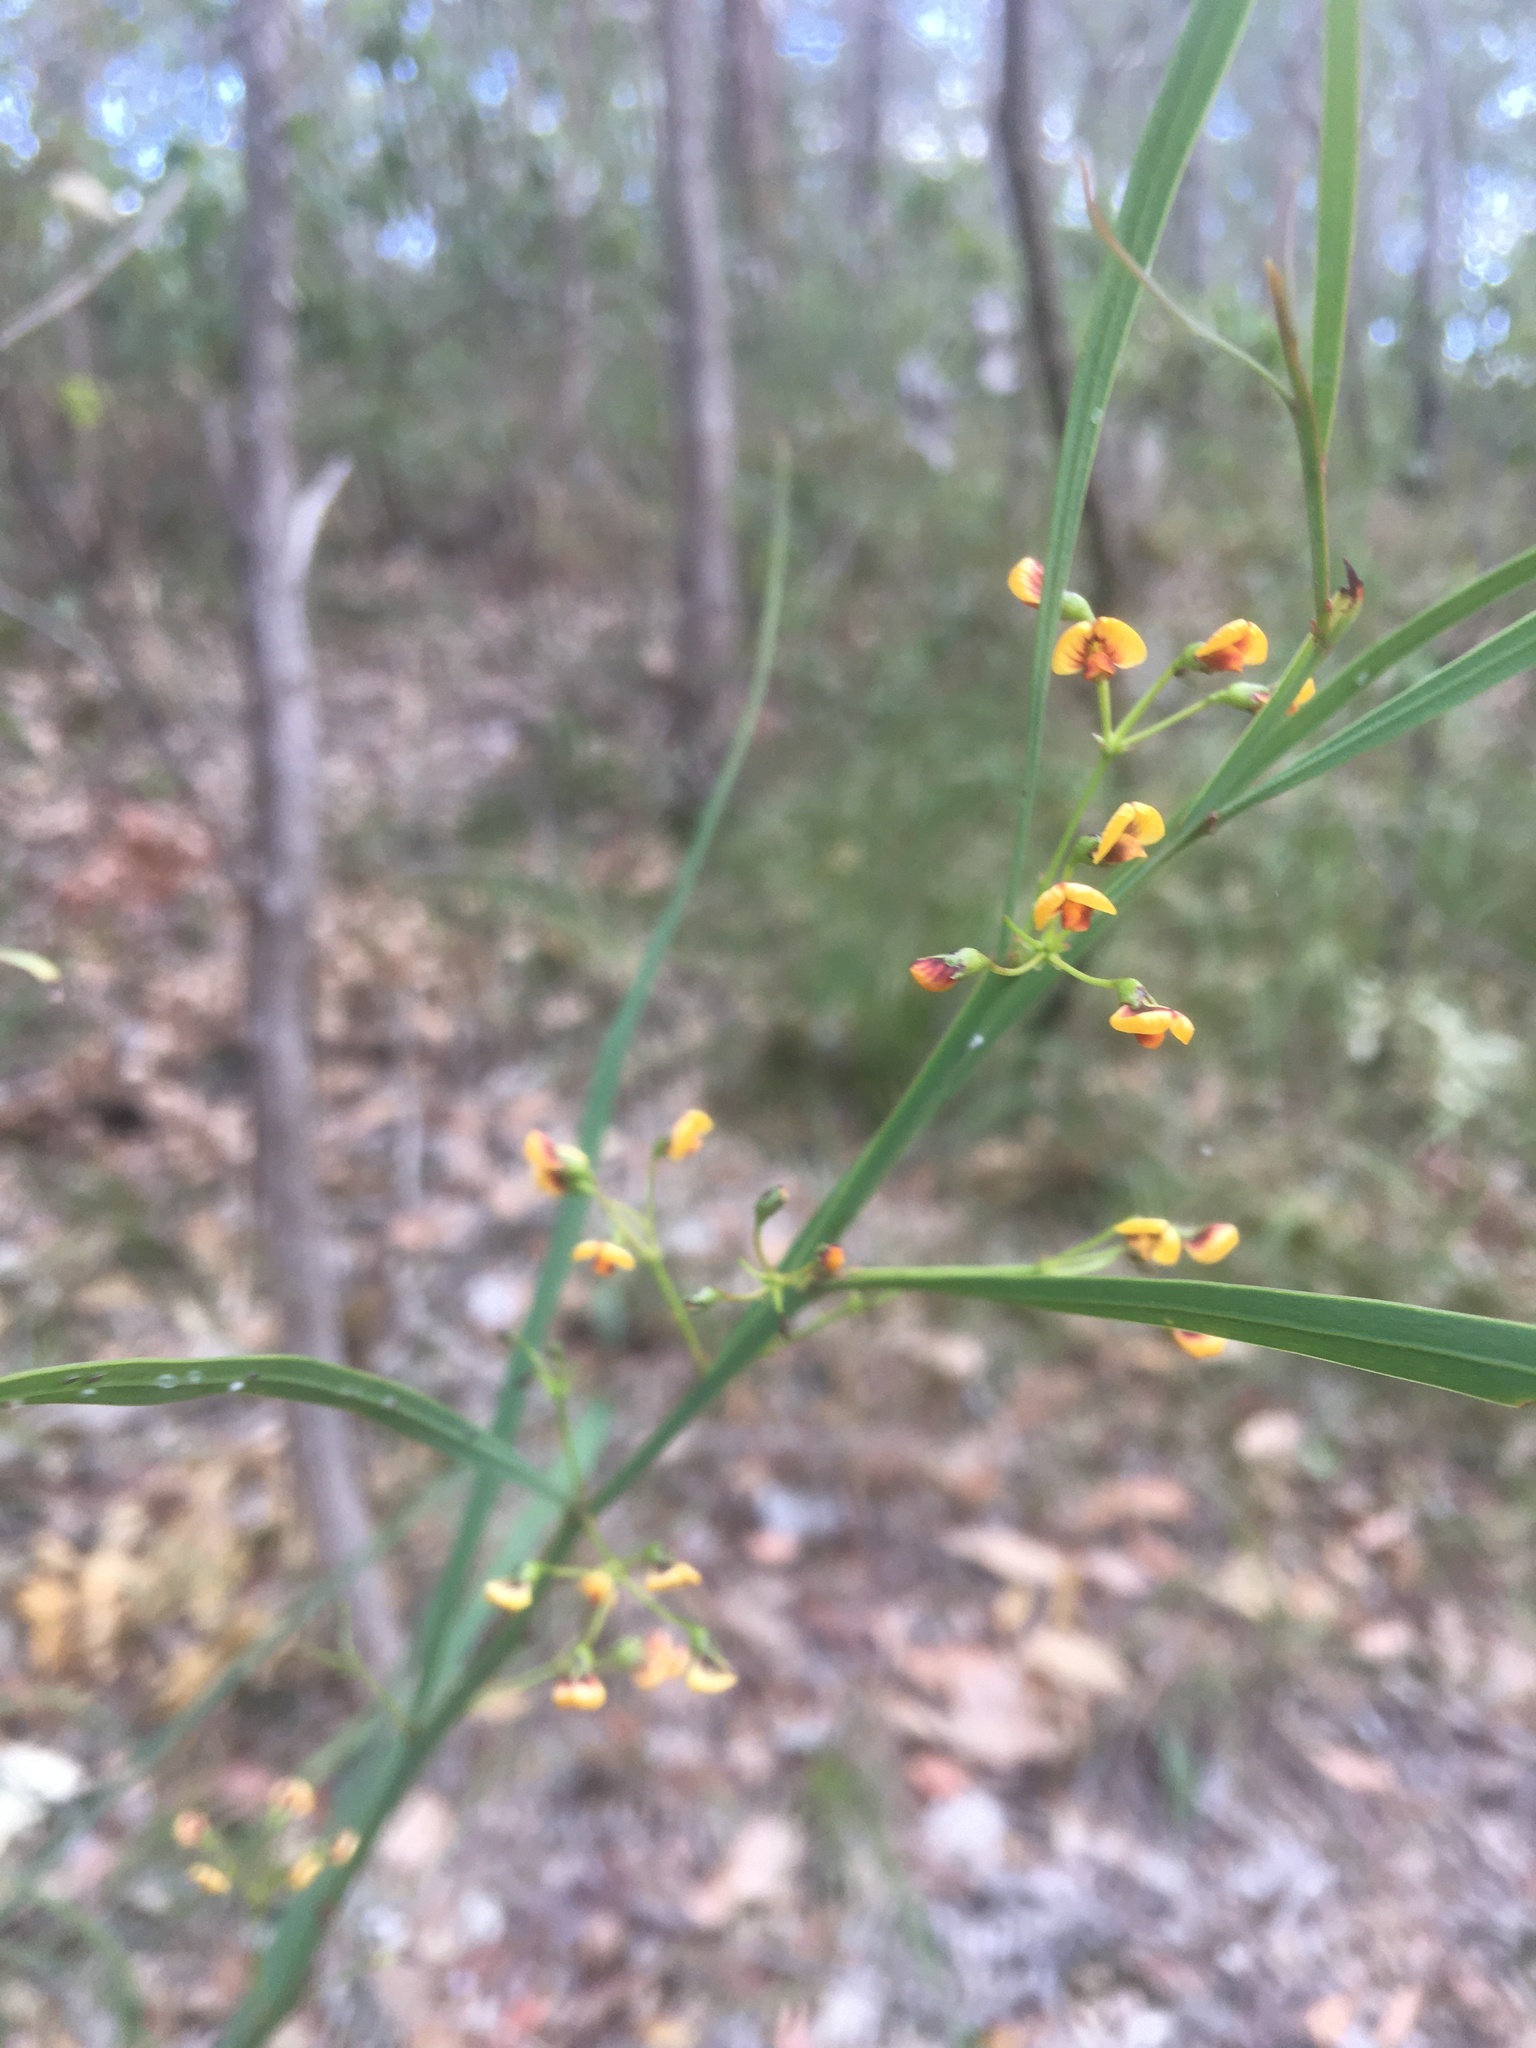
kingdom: Plantae
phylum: Tracheophyta
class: Magnoliopsida
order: Fabales
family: Fabaceae
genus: Daviesia
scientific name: Daviesia wyattiana
